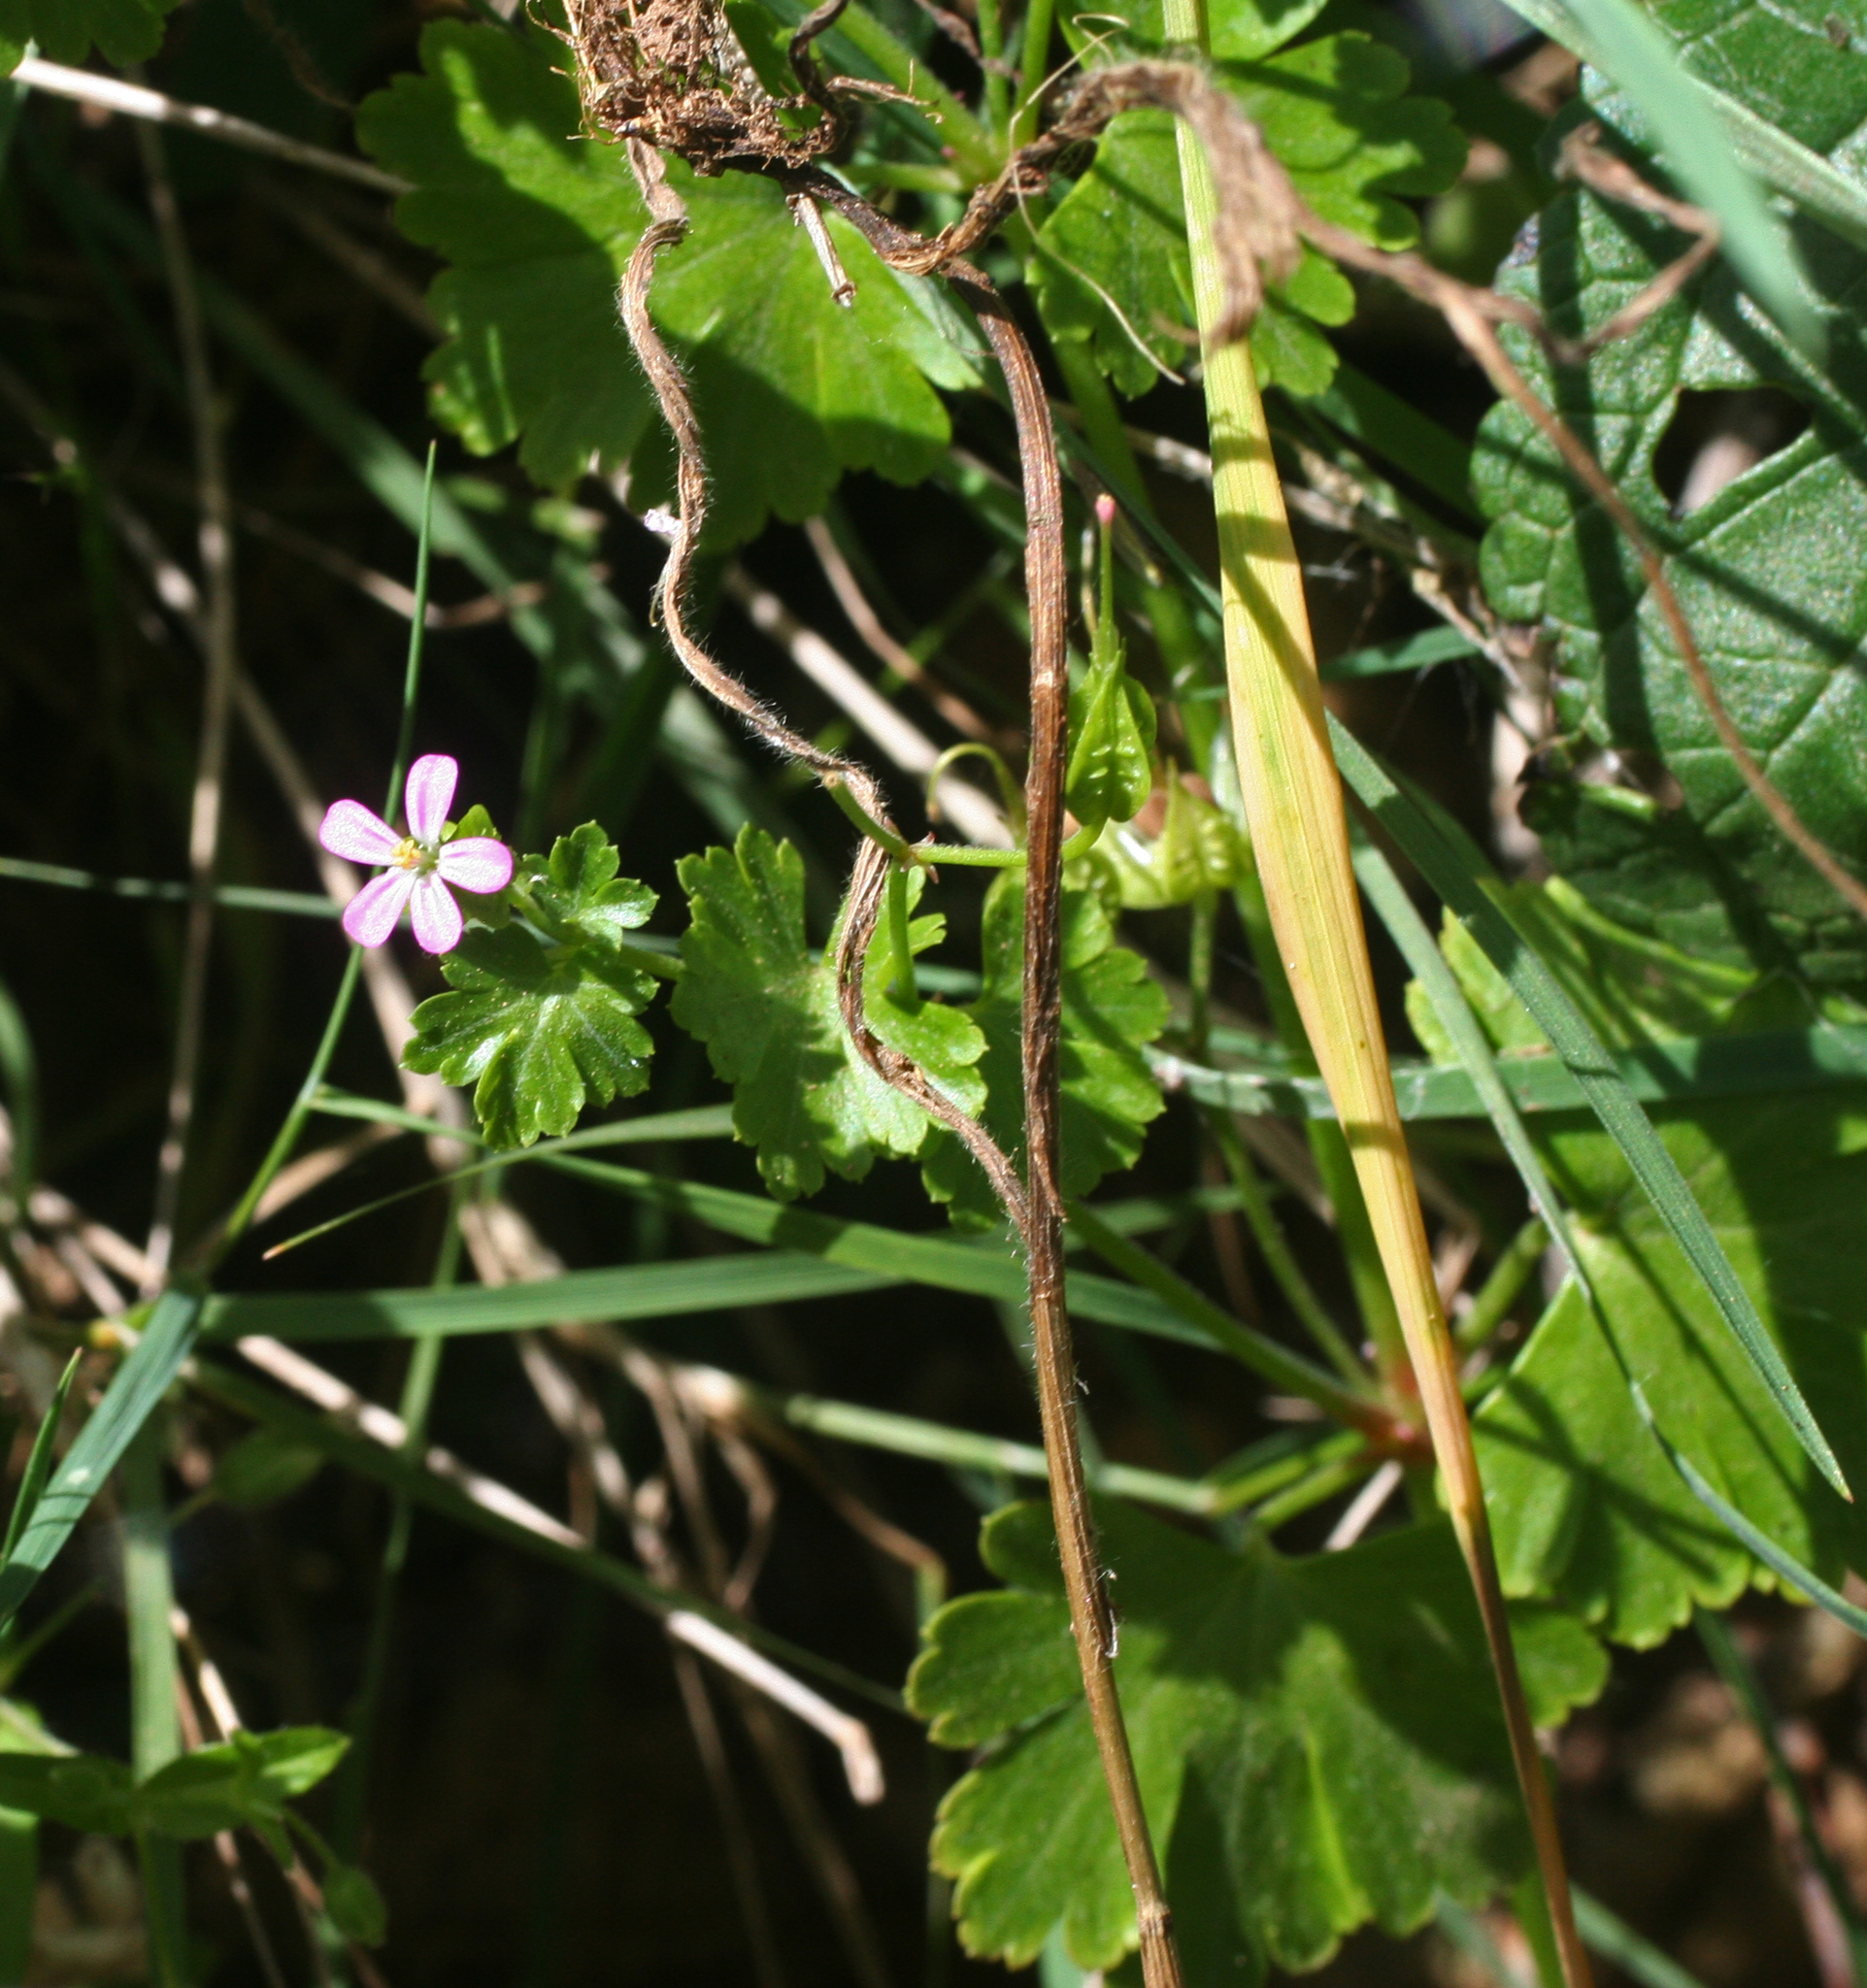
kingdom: Plantae
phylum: Tracheophyta
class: Magnoliopsida
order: Geraniales
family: Geraniaceae
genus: Geranium
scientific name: Geranium lucidum
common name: Shining crane's-bill
